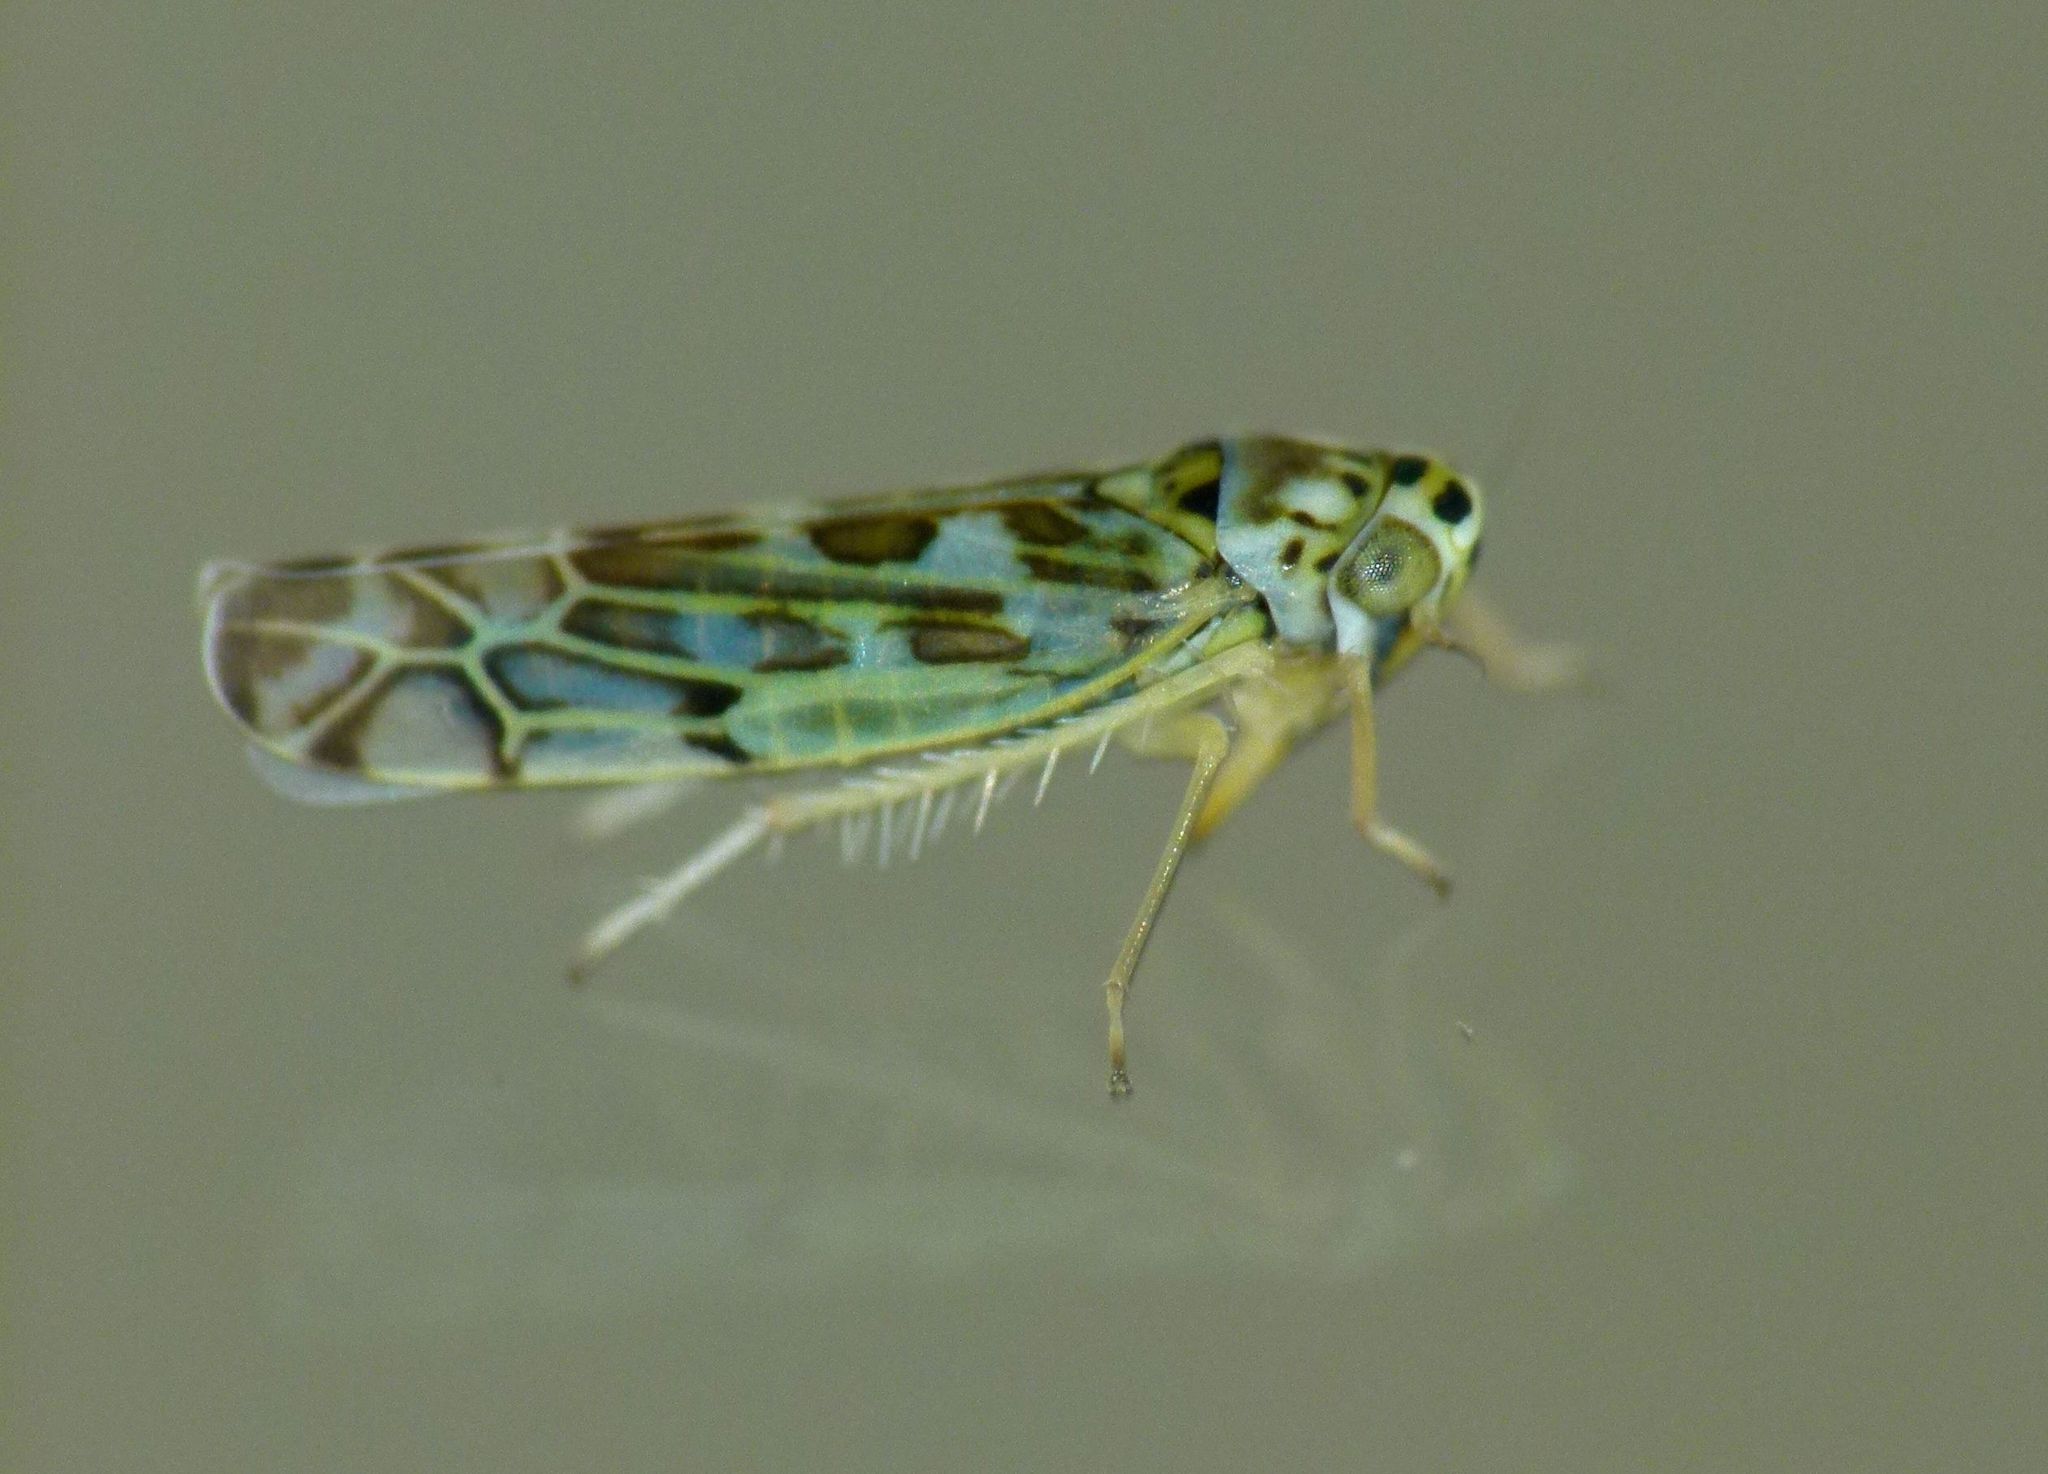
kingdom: Animalia
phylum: Arthropoda
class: Insecta
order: Hemiptera
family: Cicadellidae
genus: Eupteryx
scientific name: Eupteryx melissae
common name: Herb leafhopper
